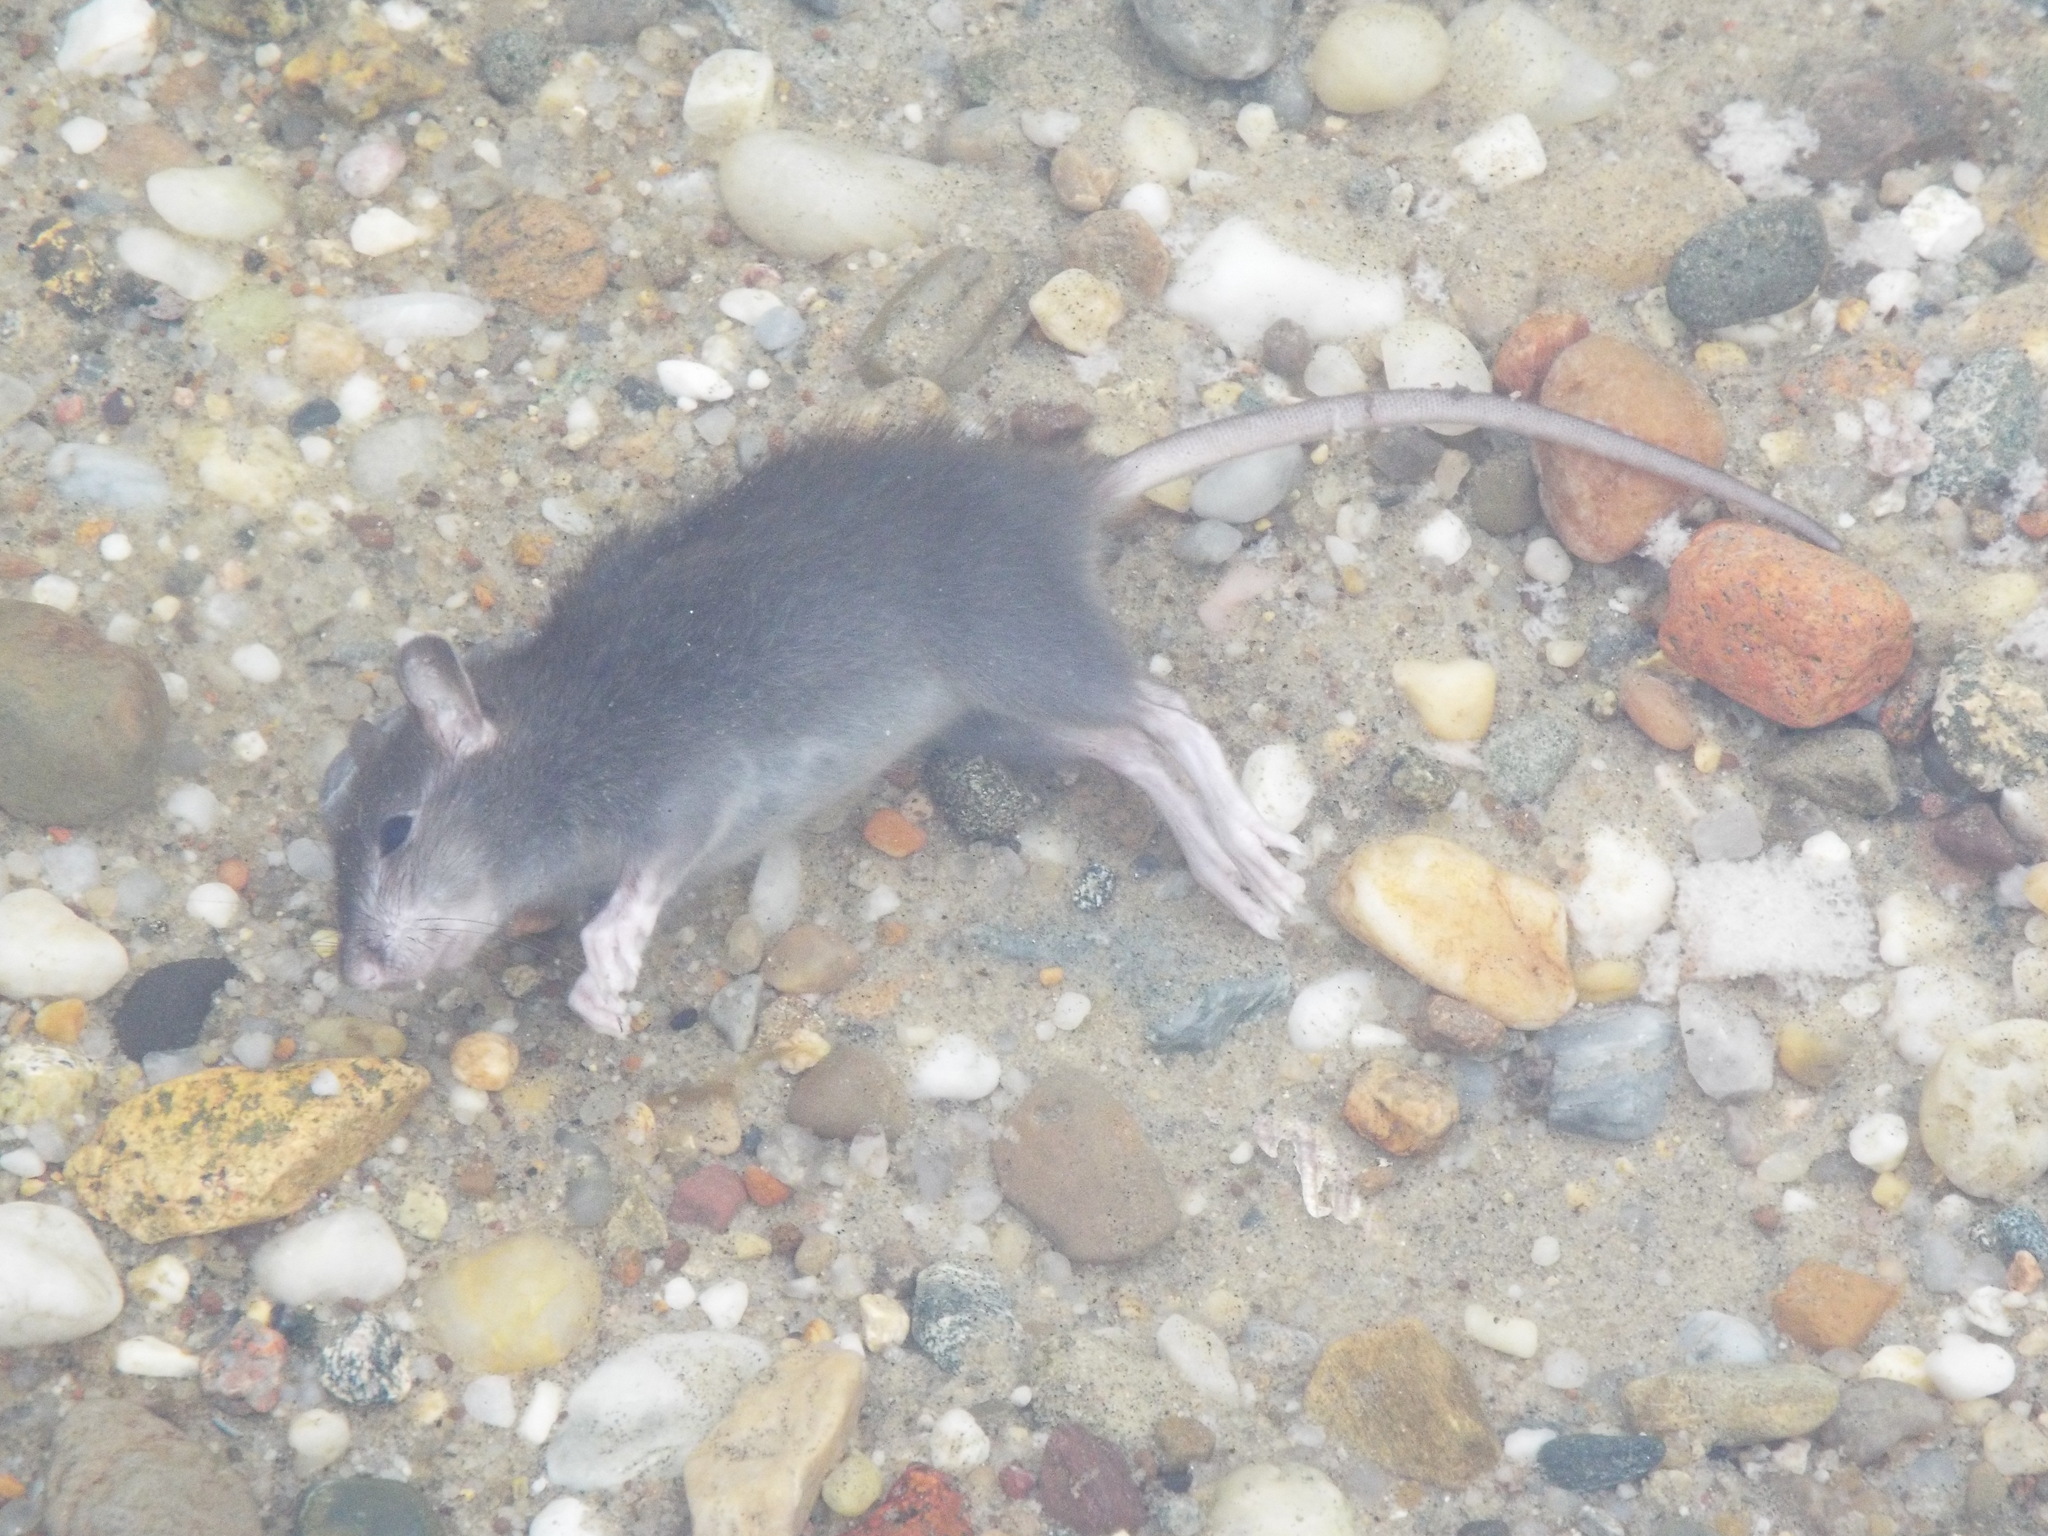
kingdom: Animalia
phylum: Chordata
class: Mammalia
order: Rodentia
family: Muridae
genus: Rattus
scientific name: Rattus norvegicus
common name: Brown rat
